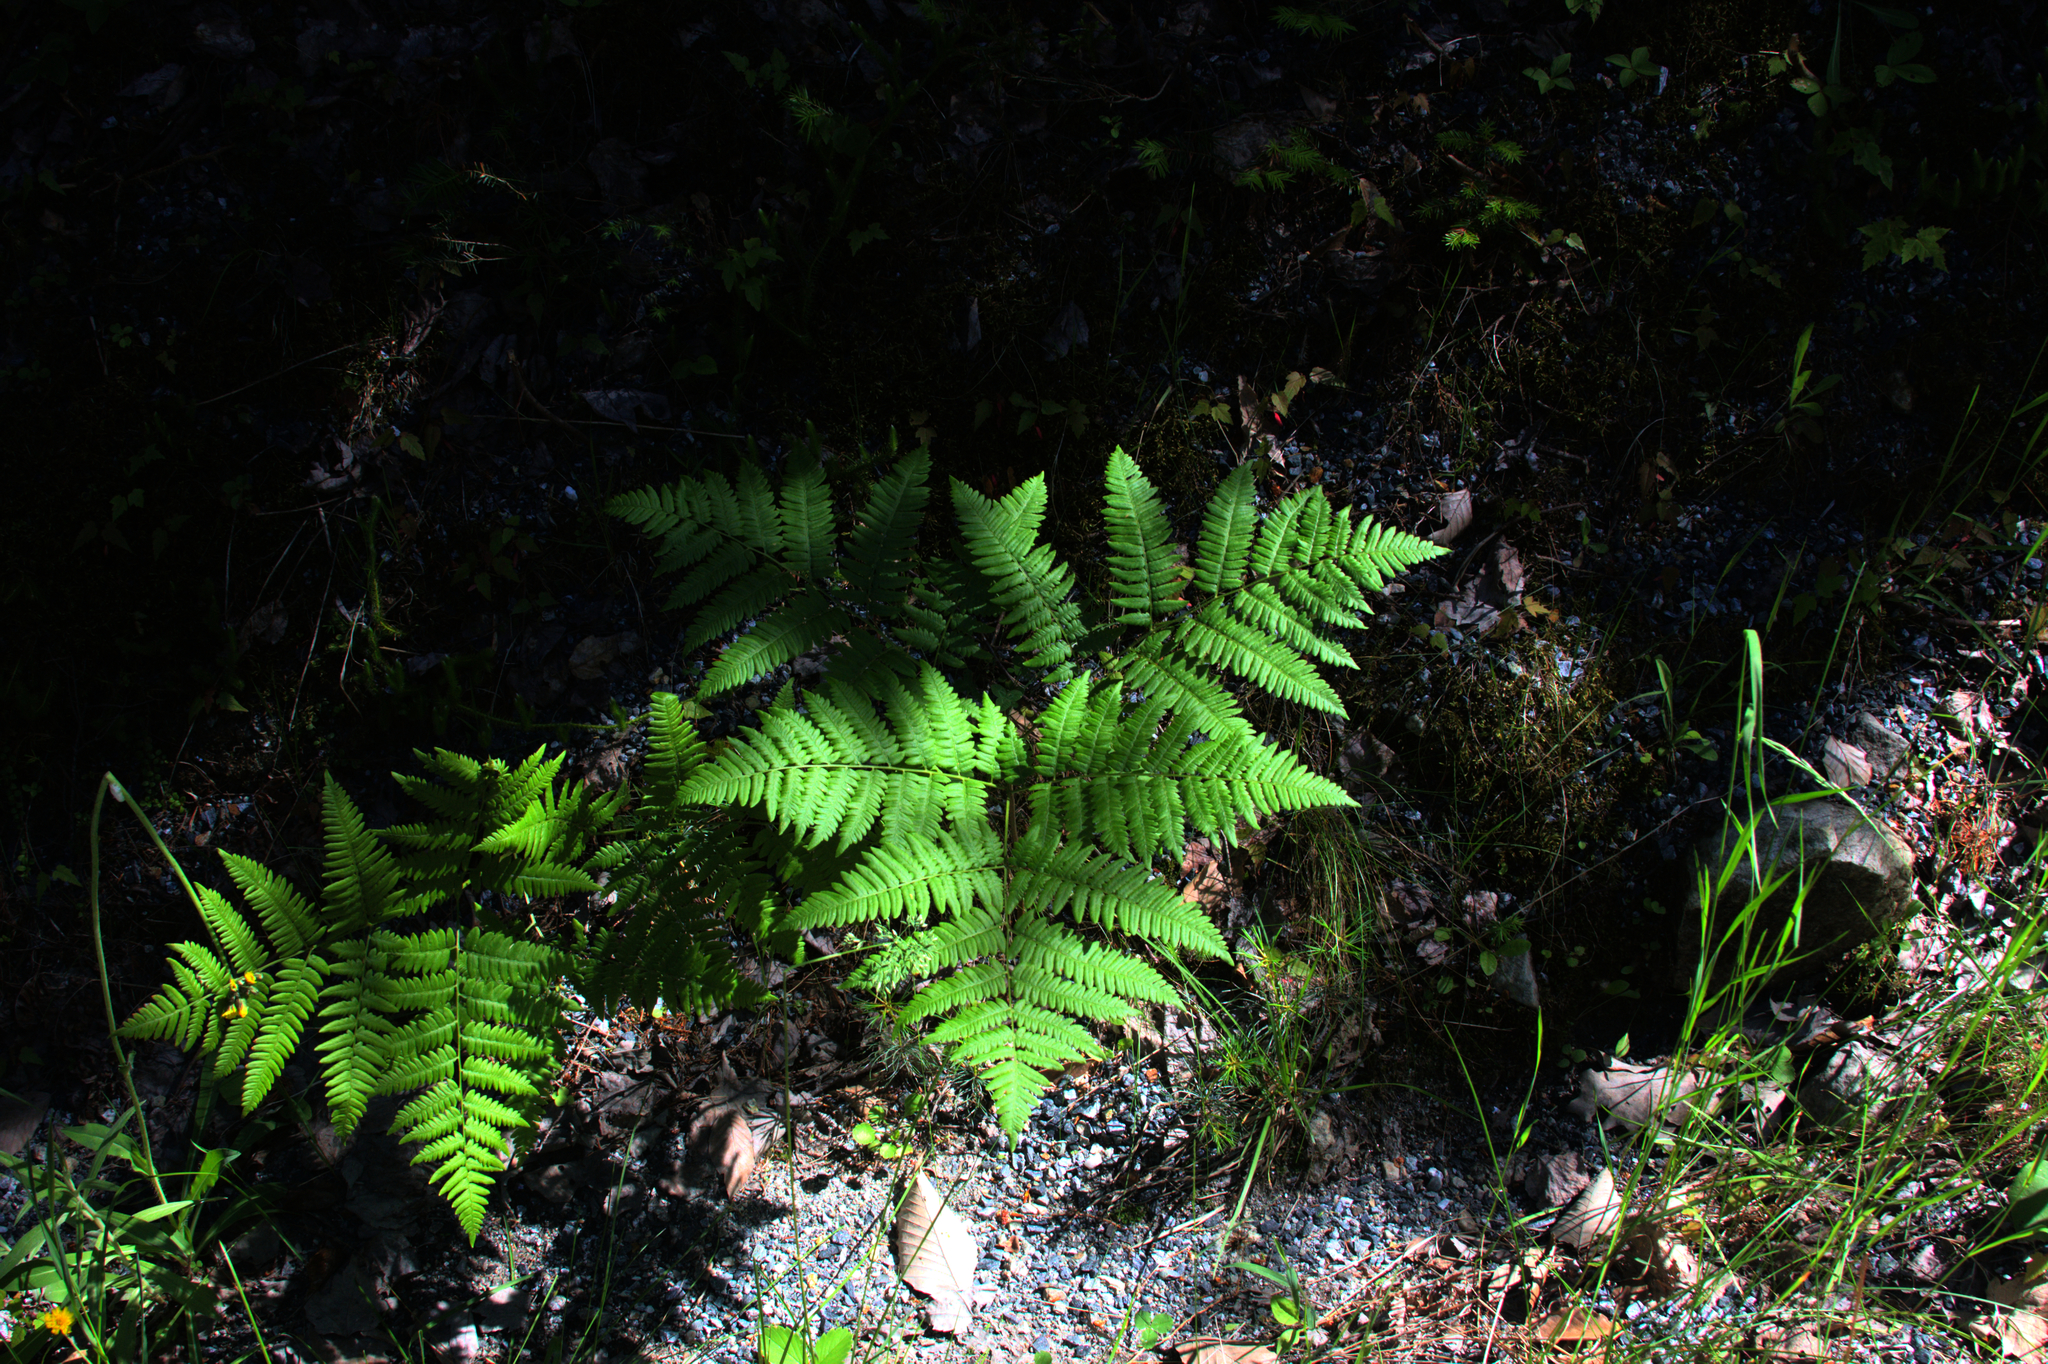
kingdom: Plantae
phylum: Tracheophyta
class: Polypodiopsida
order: Polypodiales
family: Dennstaedtiaceae
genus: Pteridium
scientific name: Pteridium aquilinum
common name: Bracken
